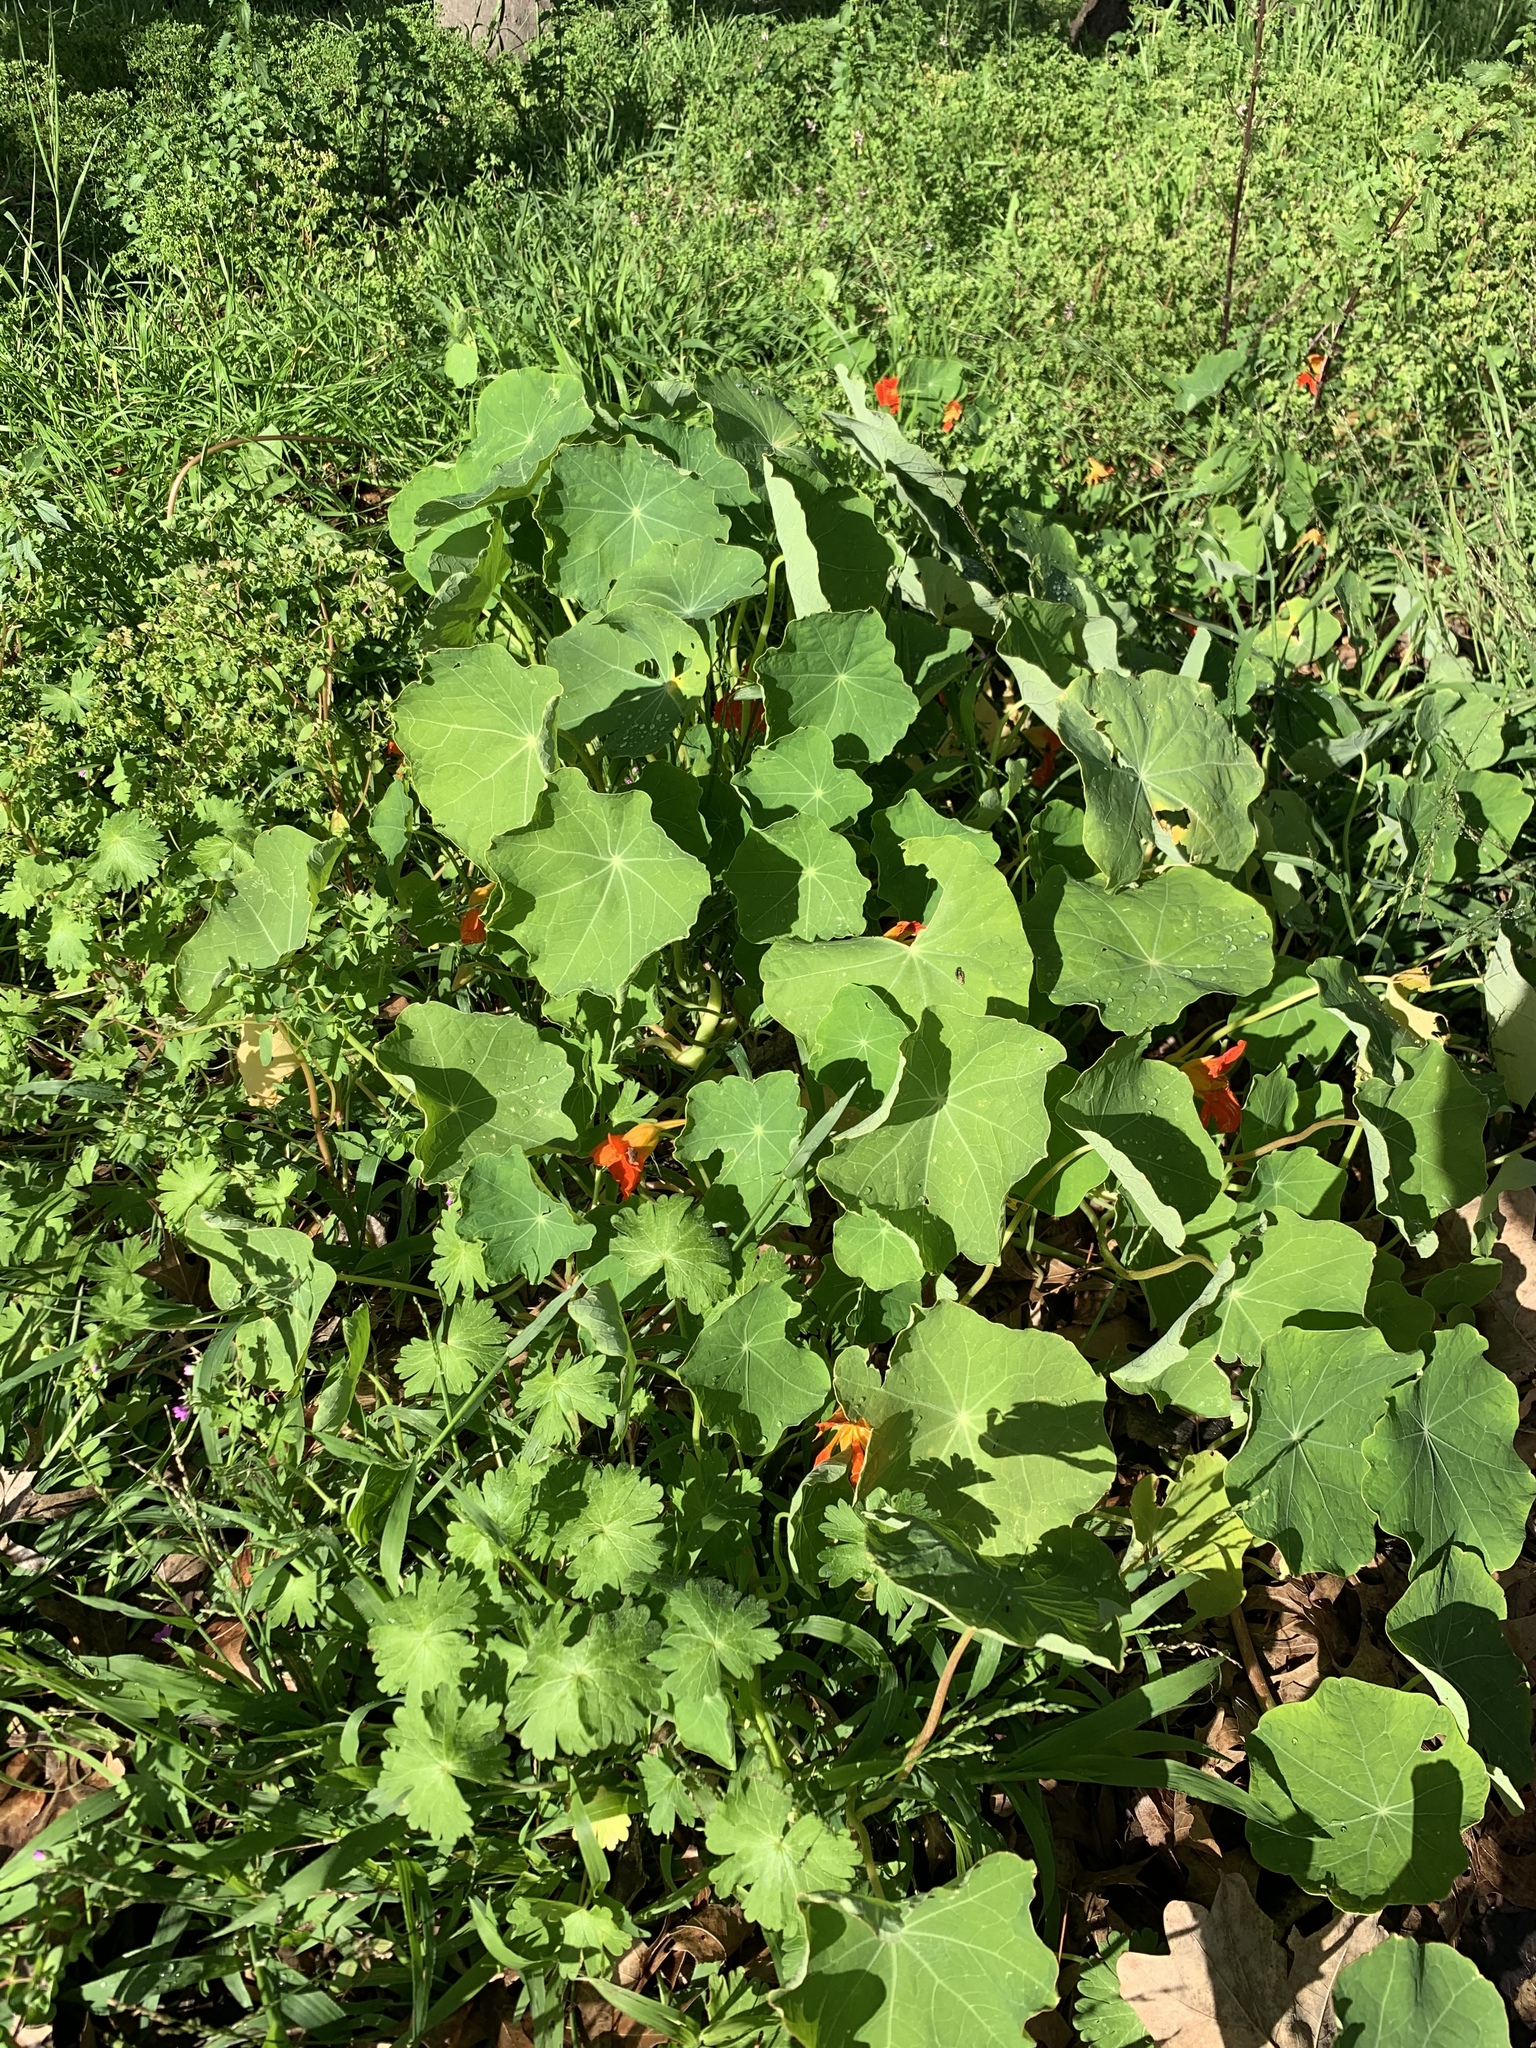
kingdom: Plantae
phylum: Tracheophyta
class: Magnoliopsida
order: Brassicales
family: Tropaeolaceae
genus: Tropaeolum
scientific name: Tropaeolum majus
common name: Nasturtium
